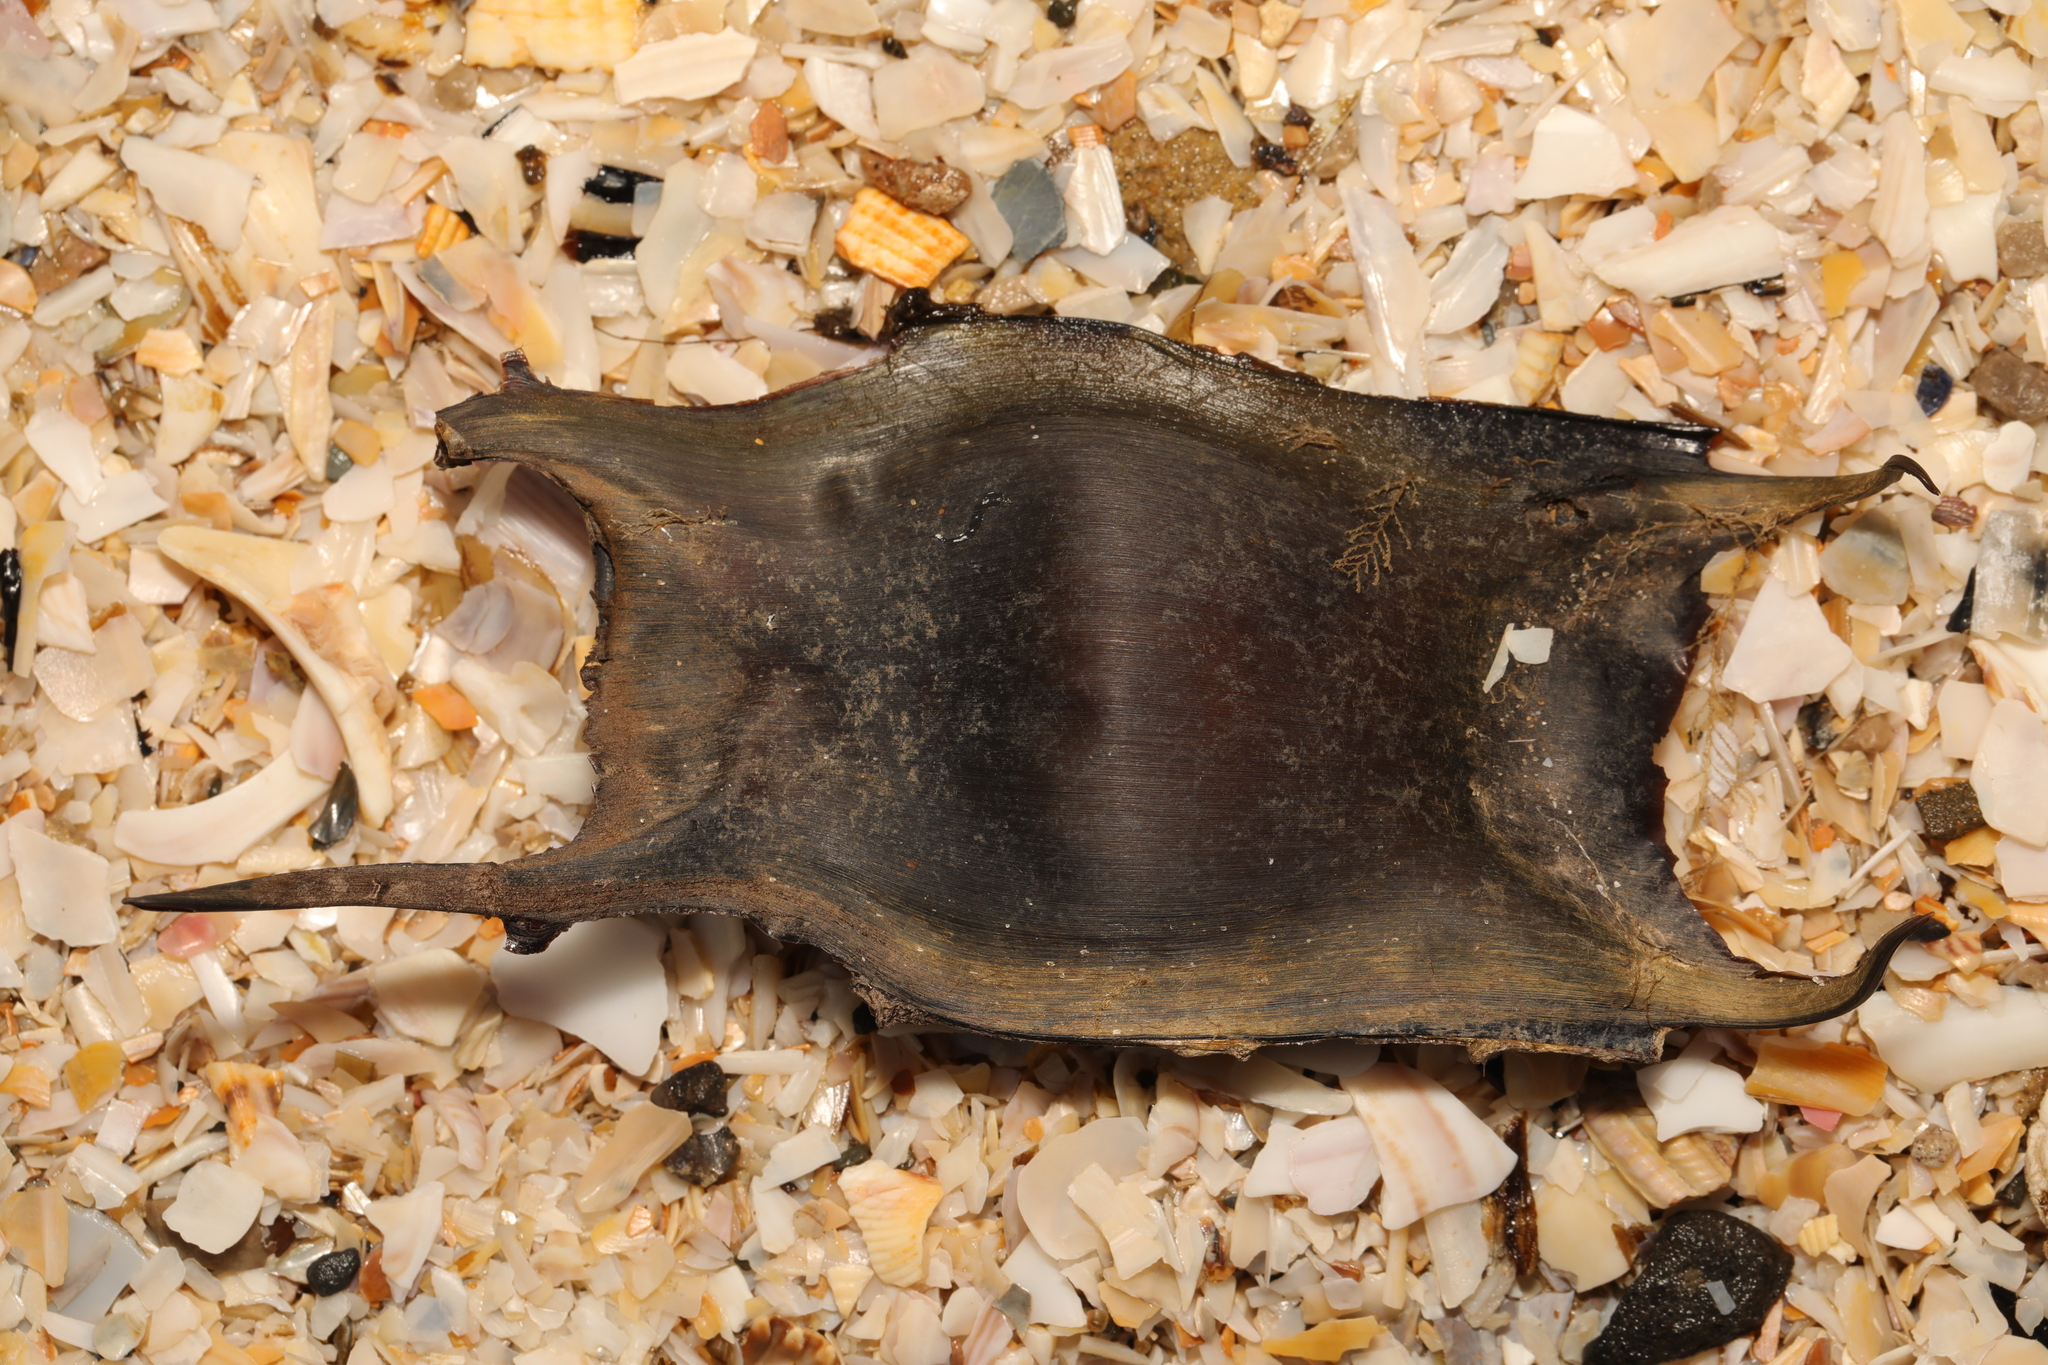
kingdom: Animalia
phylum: Chordata
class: Elasmobranchii
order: Rajiformes
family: Rajidae
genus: Raja
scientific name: Raja clavata
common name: Thornback ray
